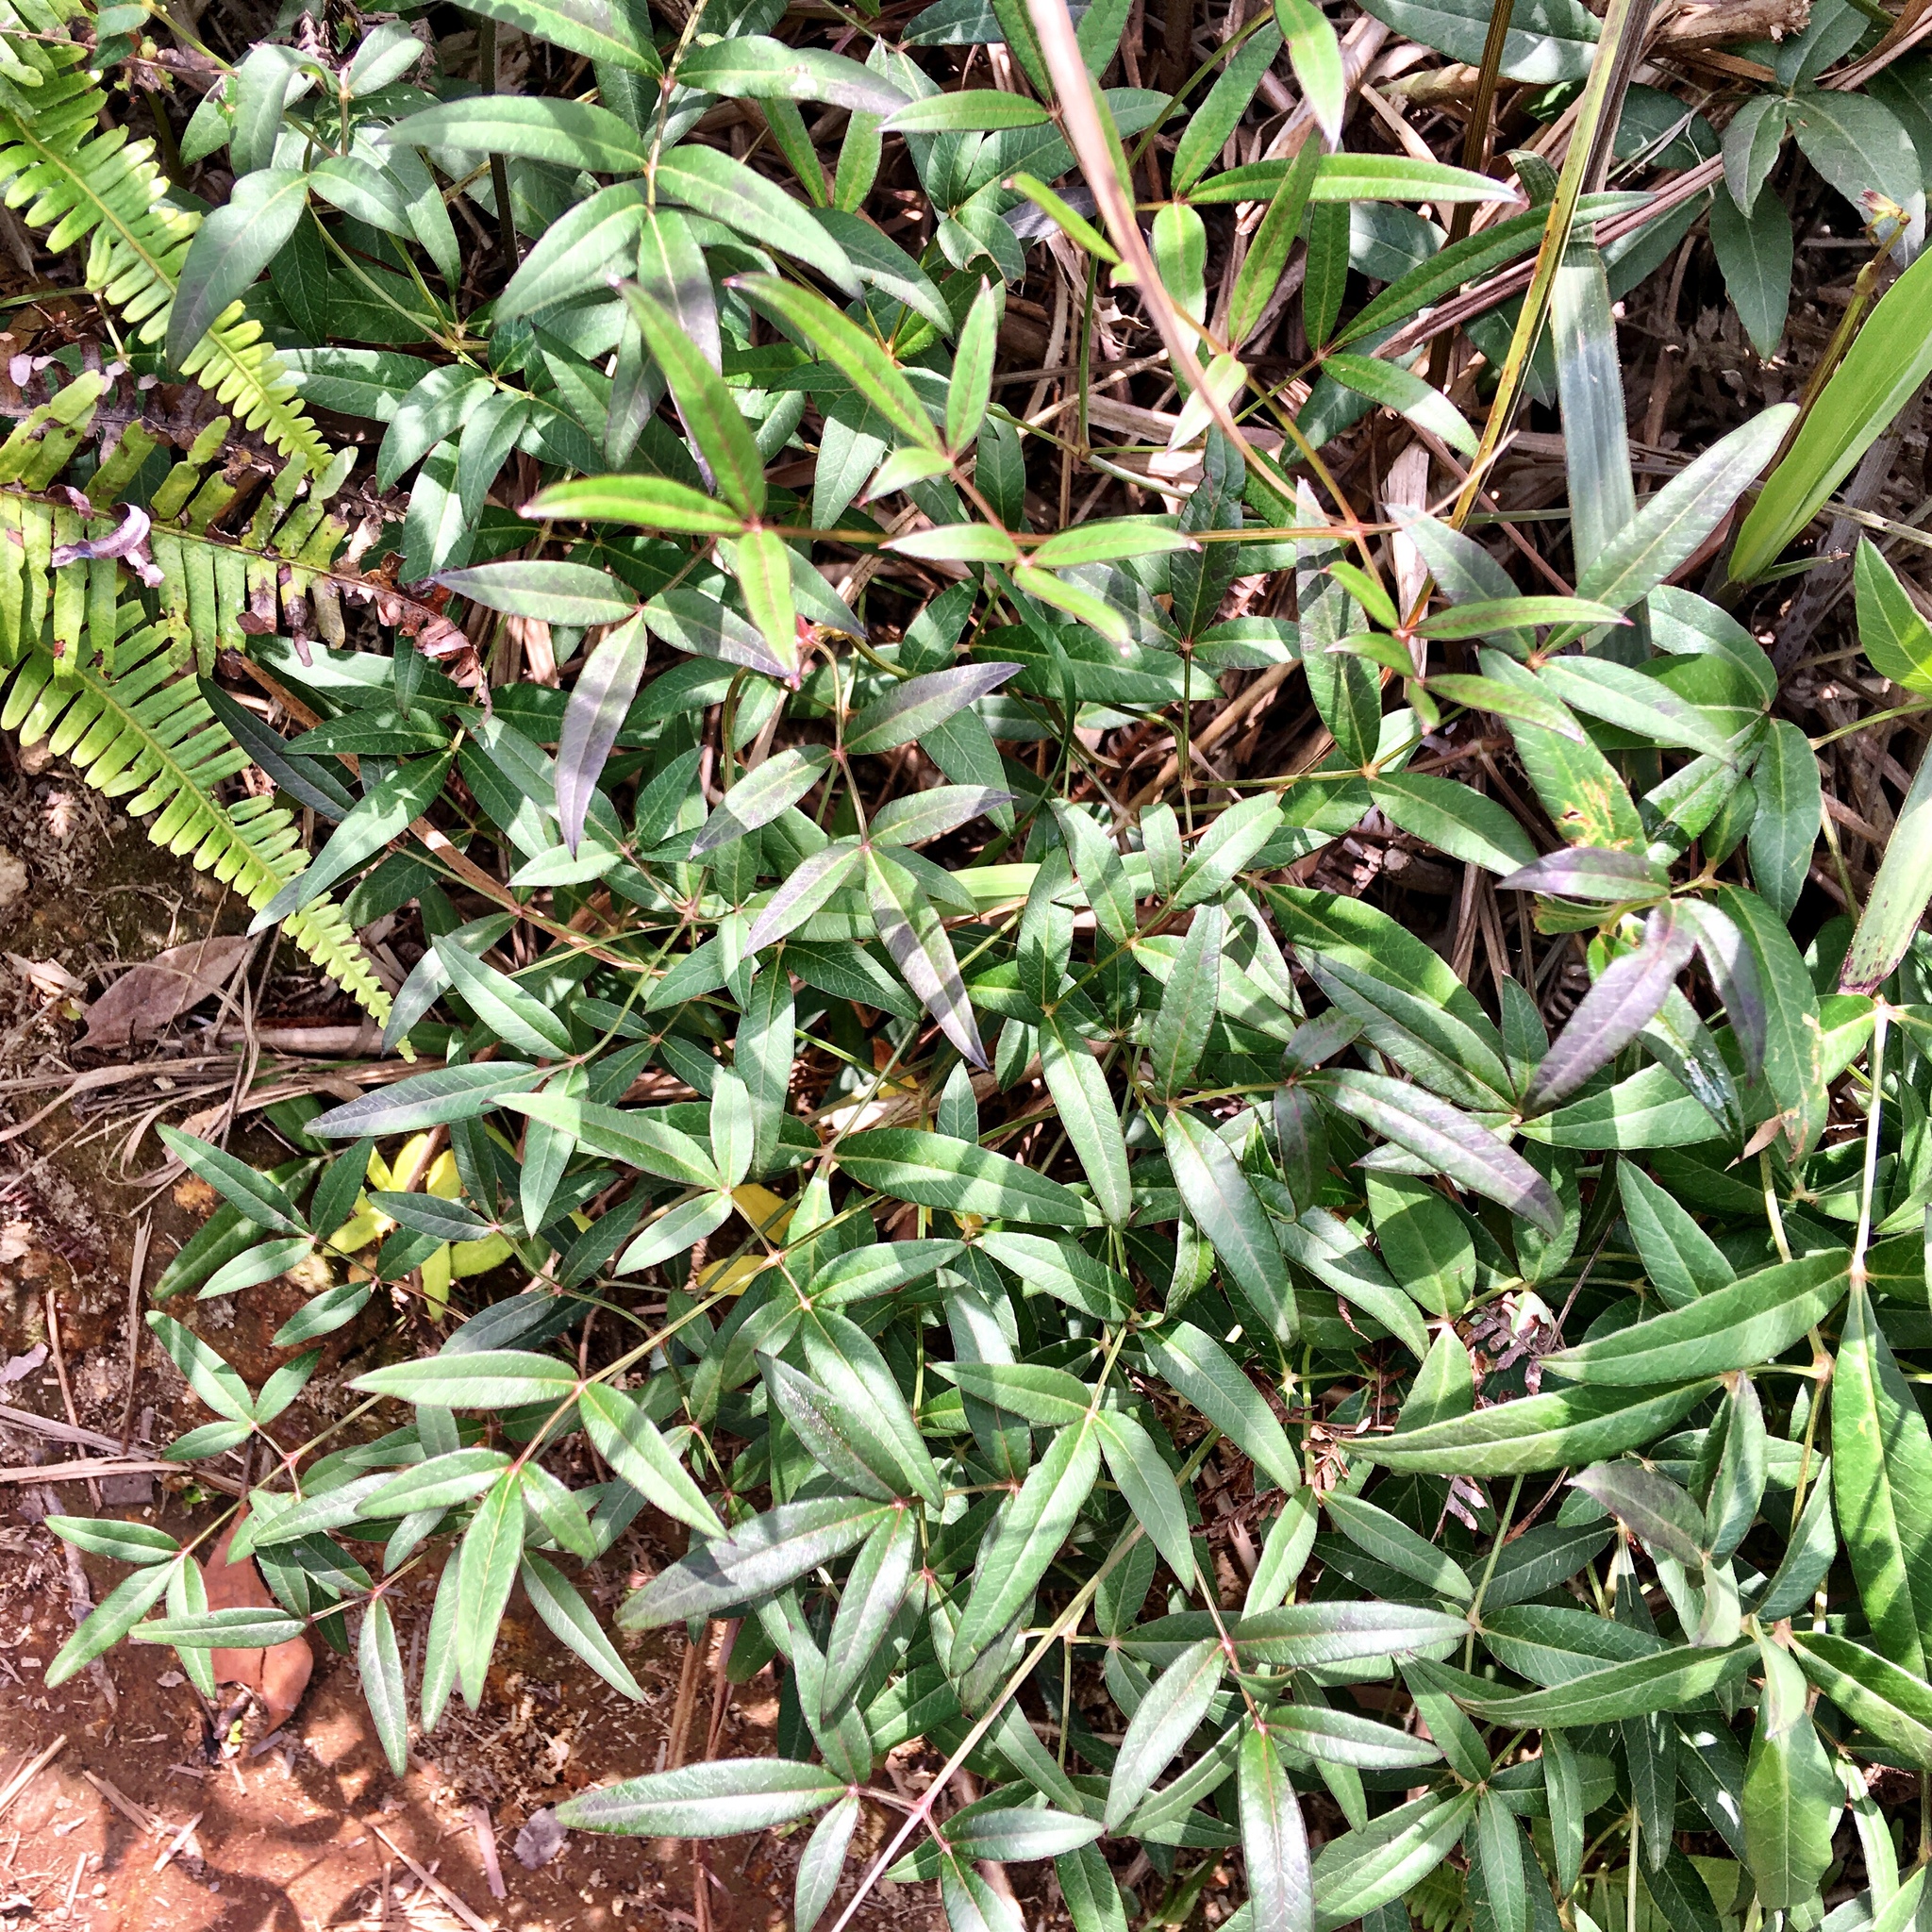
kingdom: Plantae
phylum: Tracheophyta
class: Magnoliopsida
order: Ranunculales
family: Berberidaceae
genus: Nandina
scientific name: Nandina domestica
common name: Sacred bamboo
